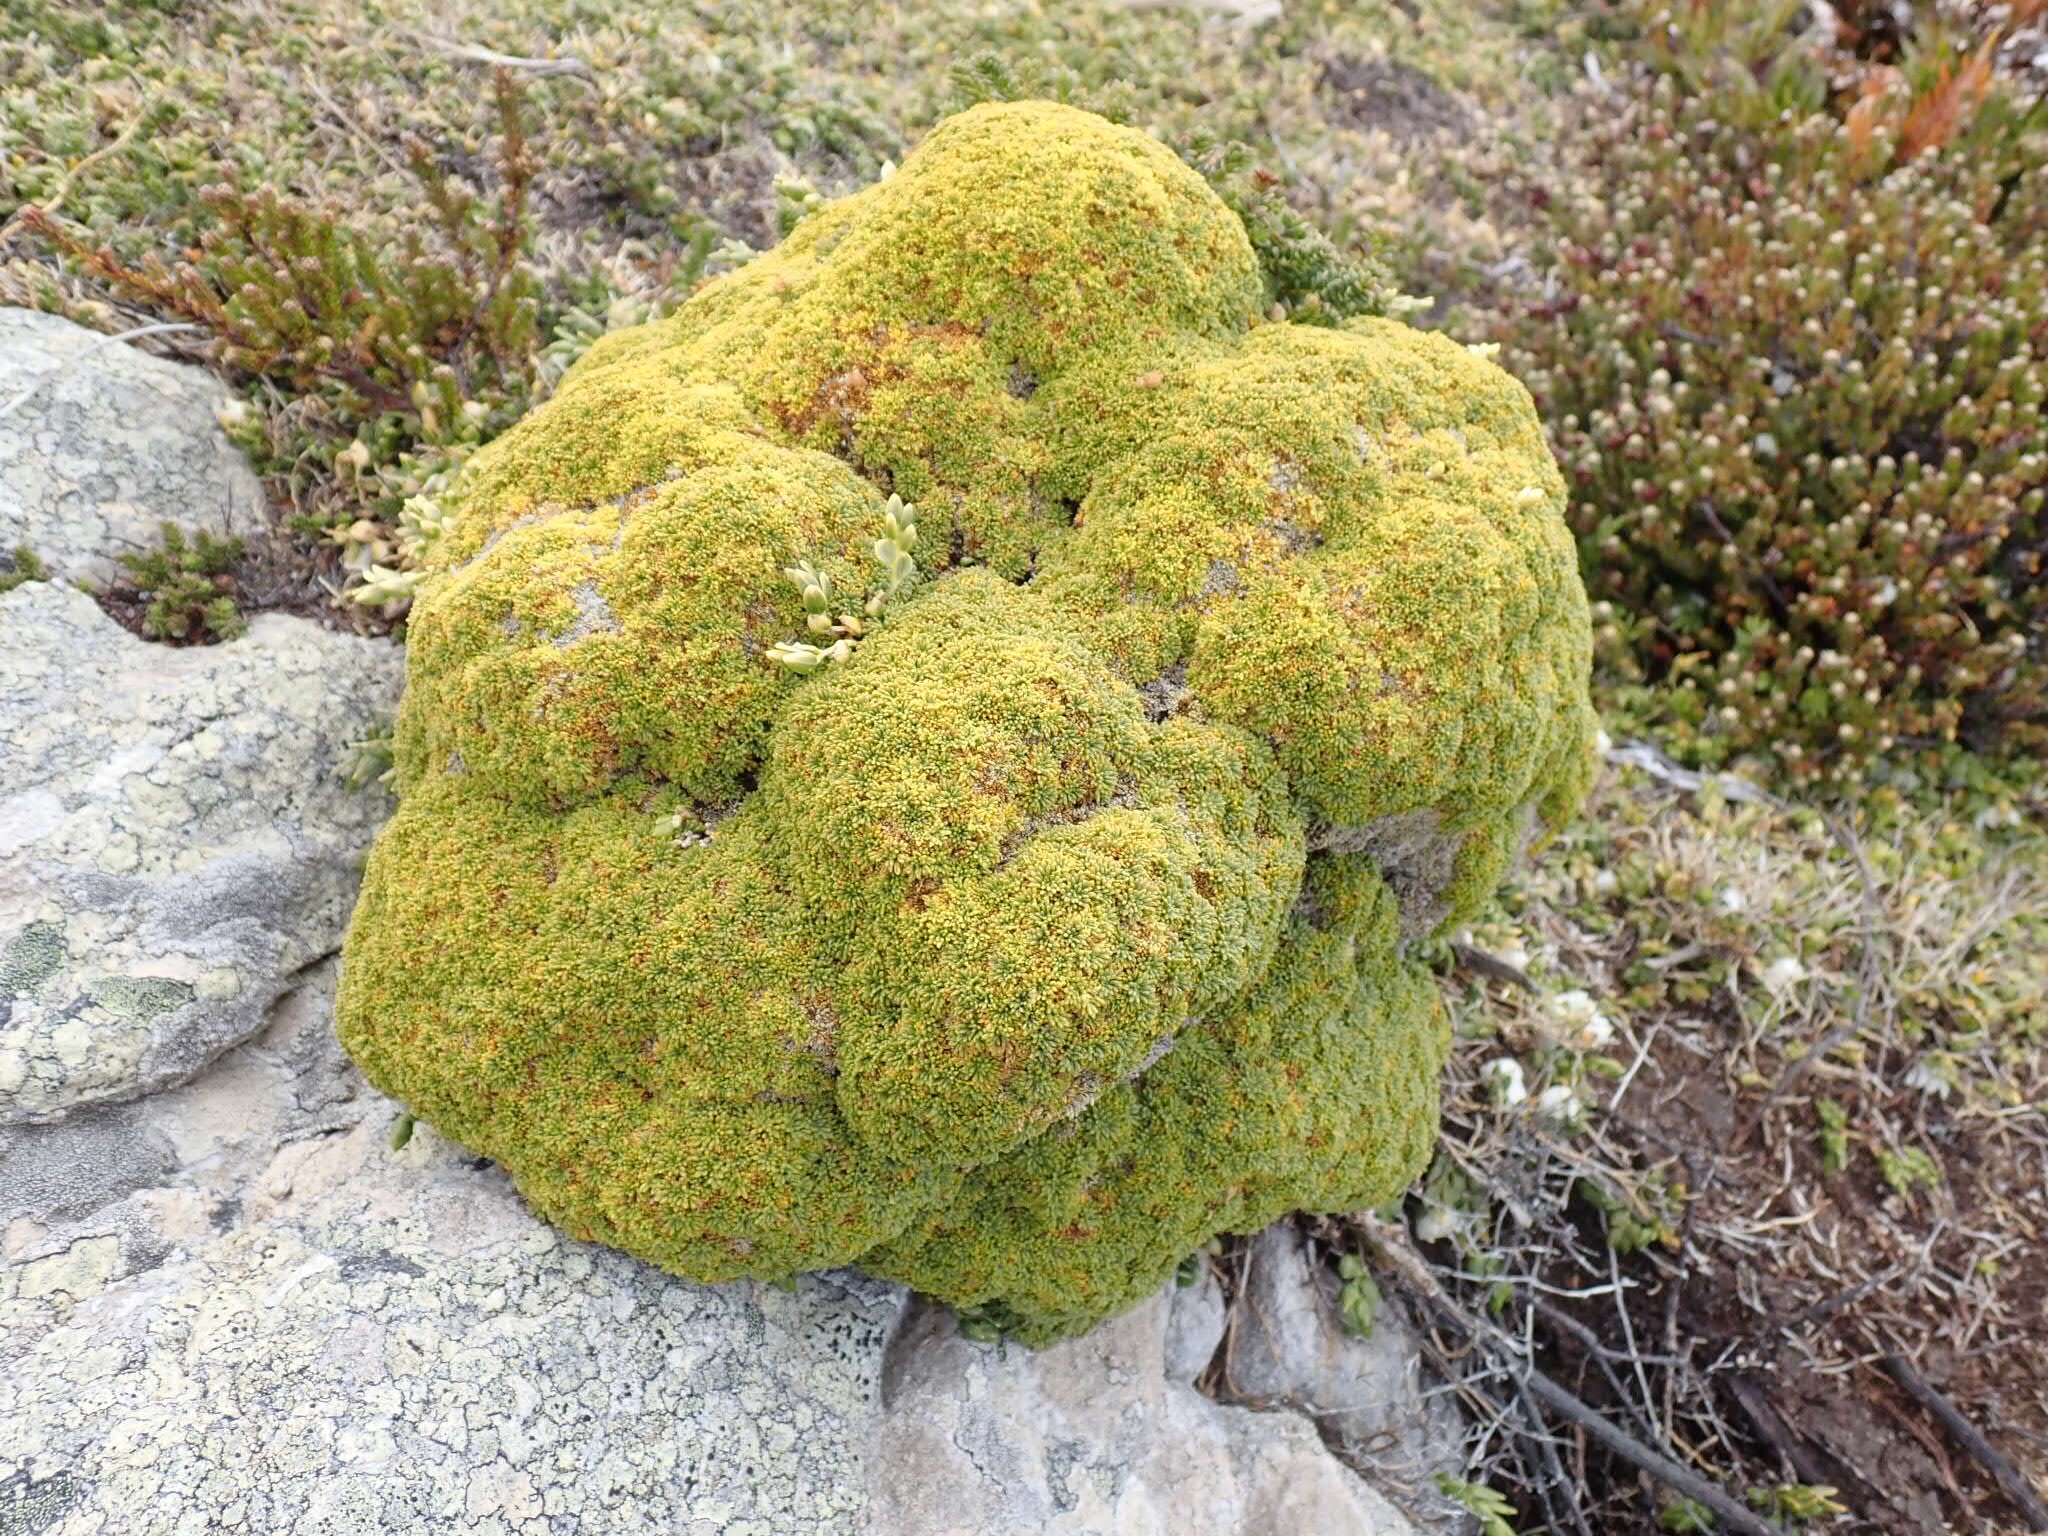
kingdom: Plantae
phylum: Tracheophyta
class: Magnoliopsida
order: Apiales
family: Apiaceae
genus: Bolax
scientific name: Bolax gummifera
